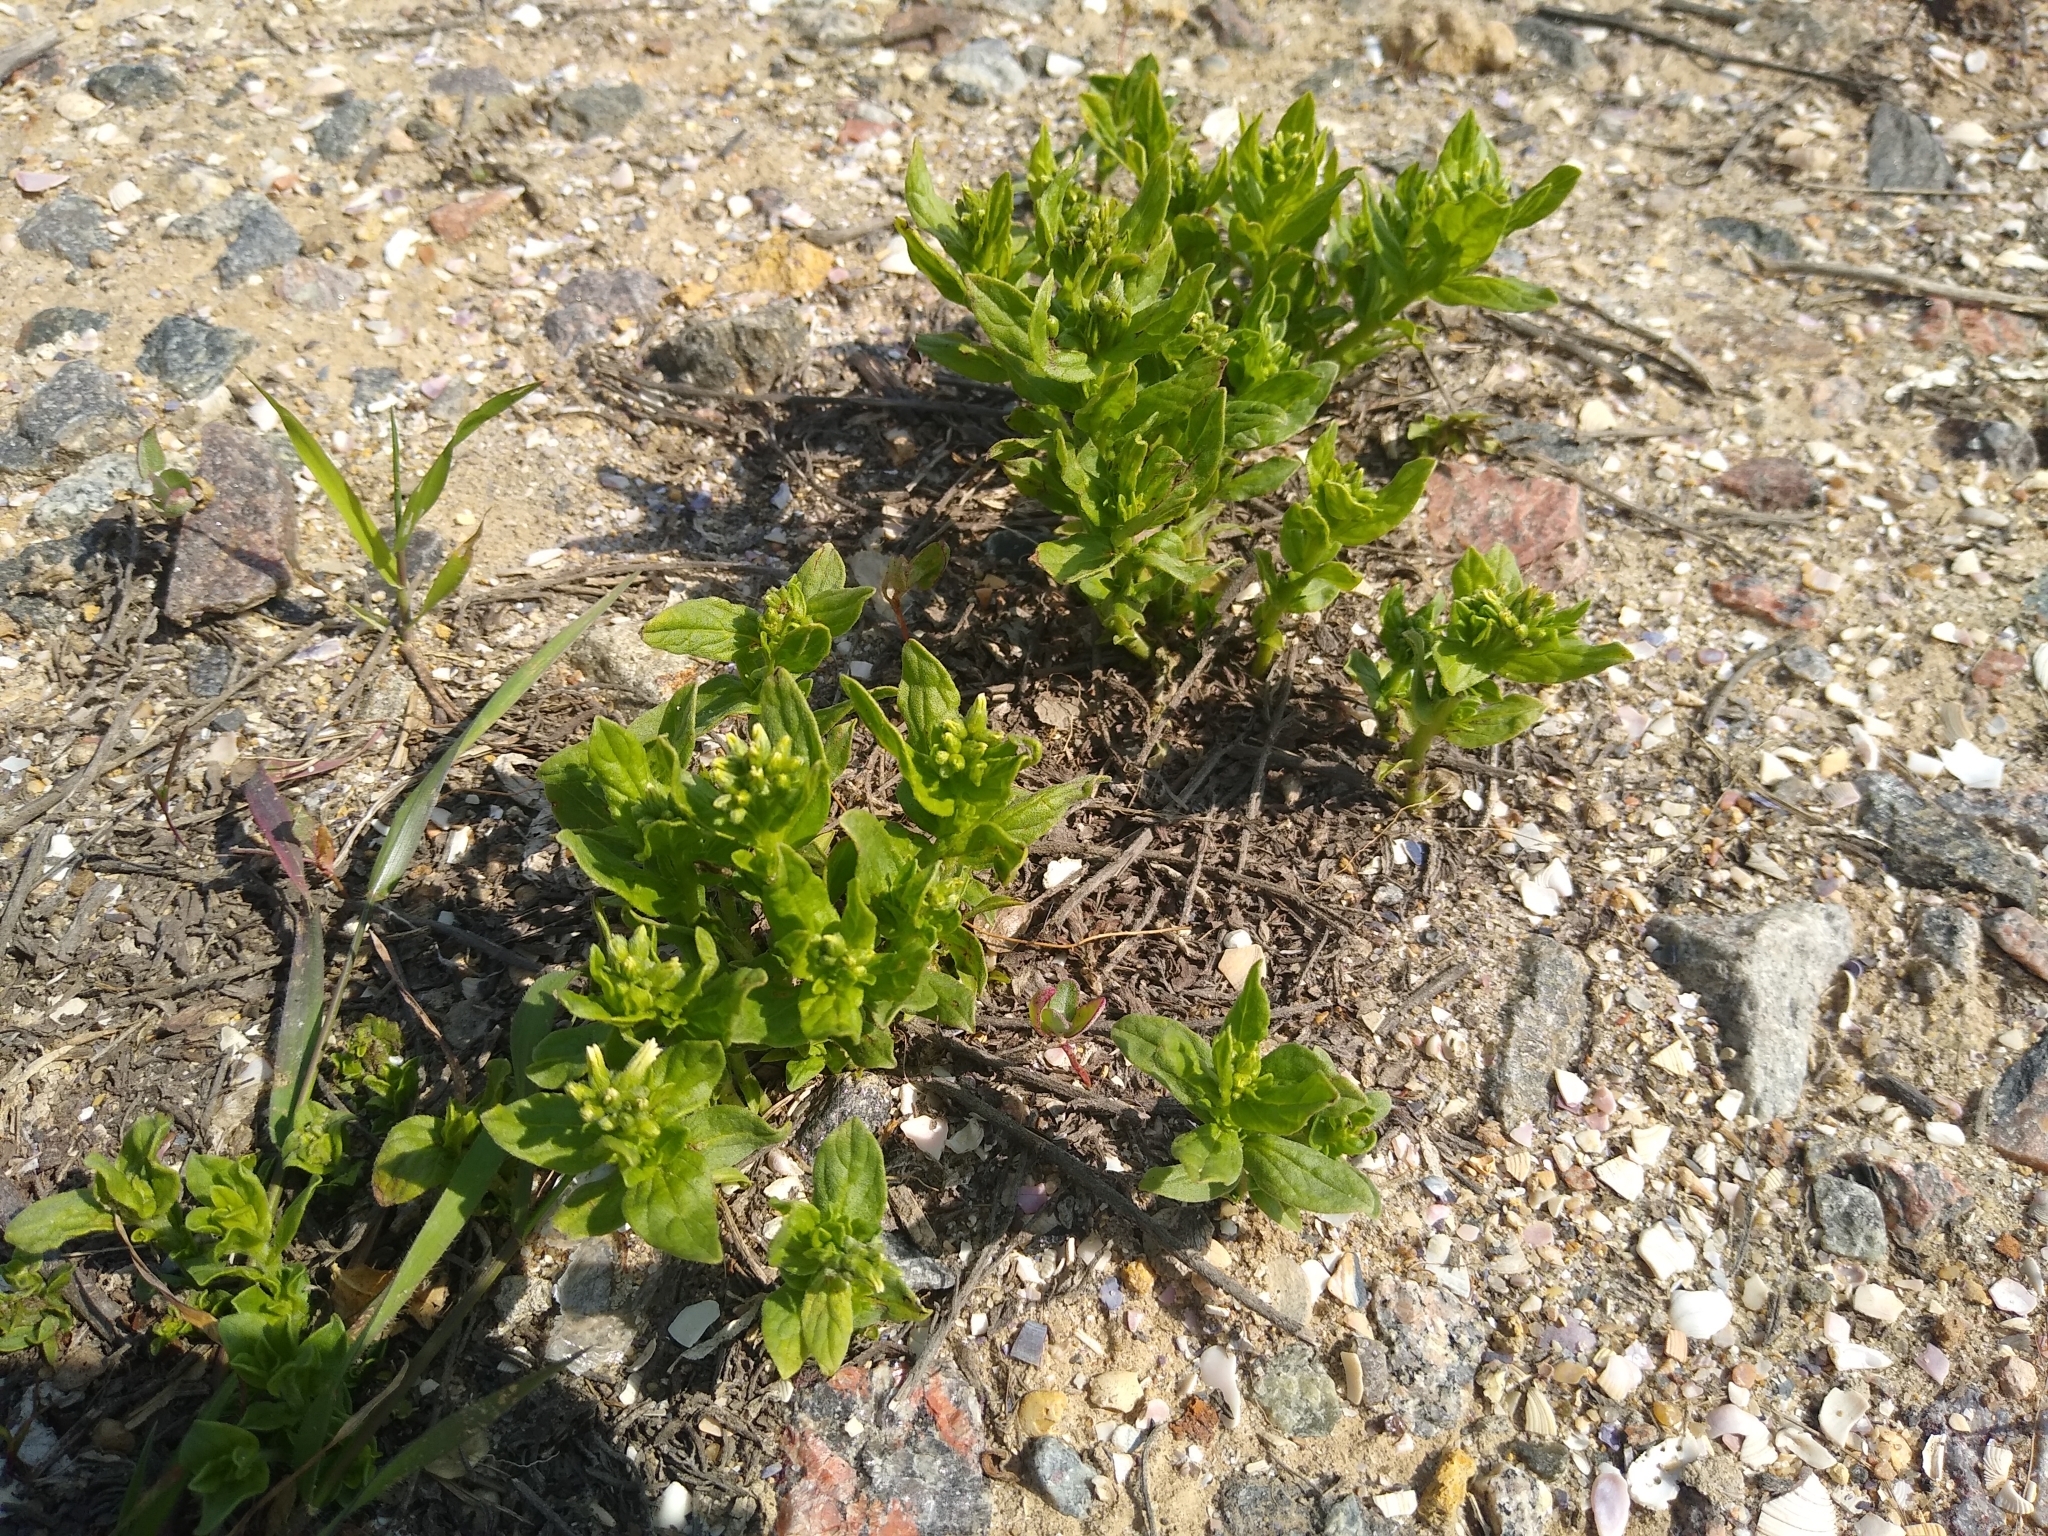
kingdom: Plantae
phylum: Tracheophyta
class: Magnoliopsida
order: Boraginales
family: Heliotropiaceae
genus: Tournefortia
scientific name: Tournefortia sibirica
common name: Siberian sea rosemary
